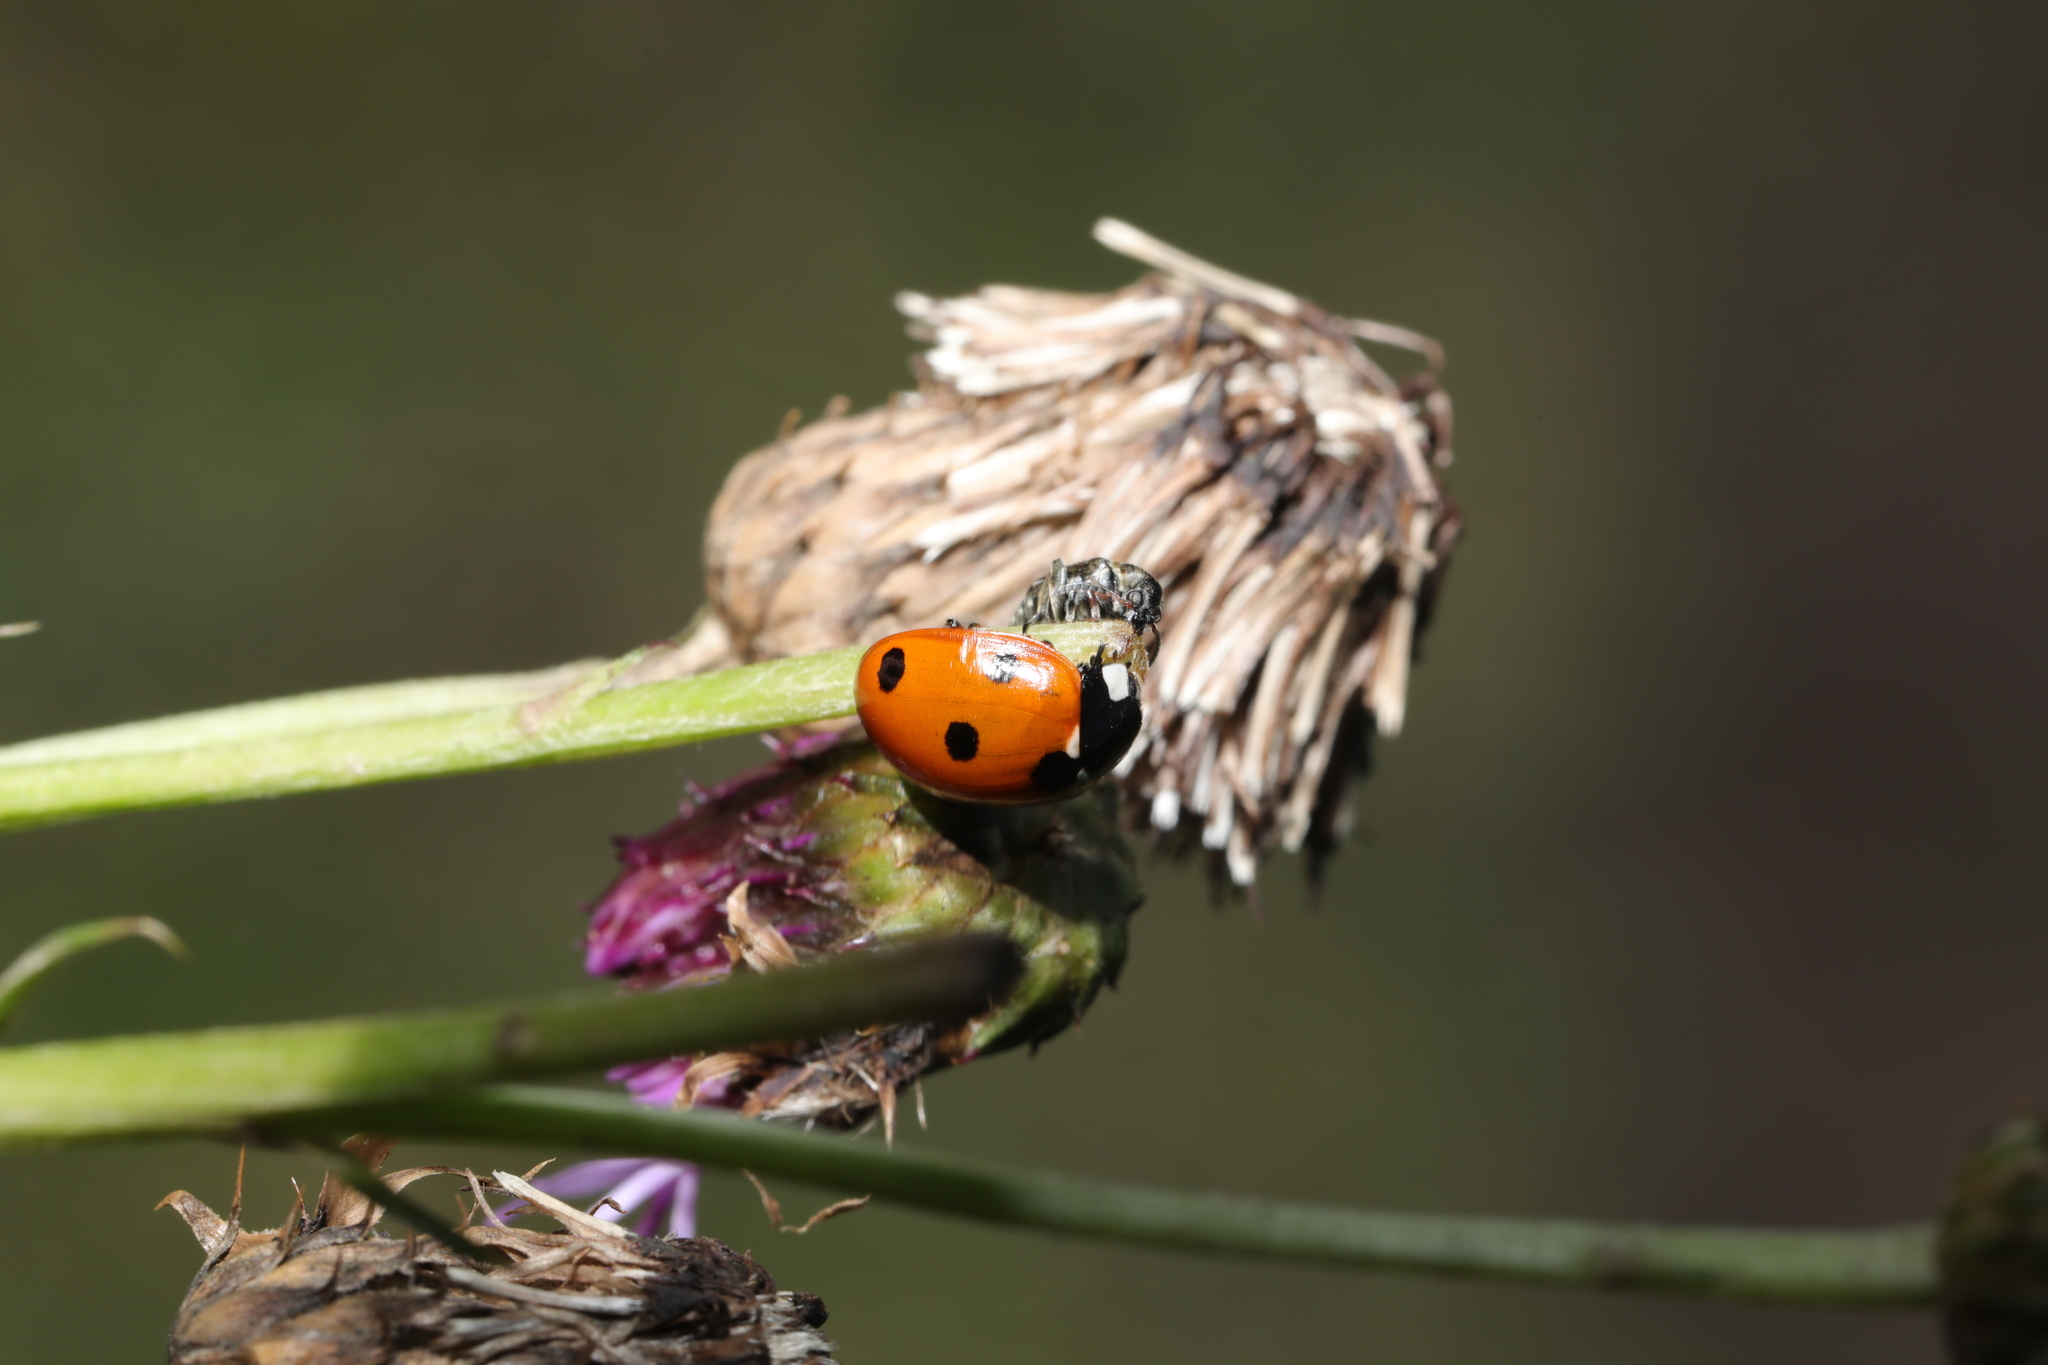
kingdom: Animalia
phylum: Arthropoda
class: Insecta
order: Coleoptera
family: Coccinellidae
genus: Coccinella
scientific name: Coccinella septempunctata
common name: Sevenspotted lady beetle
